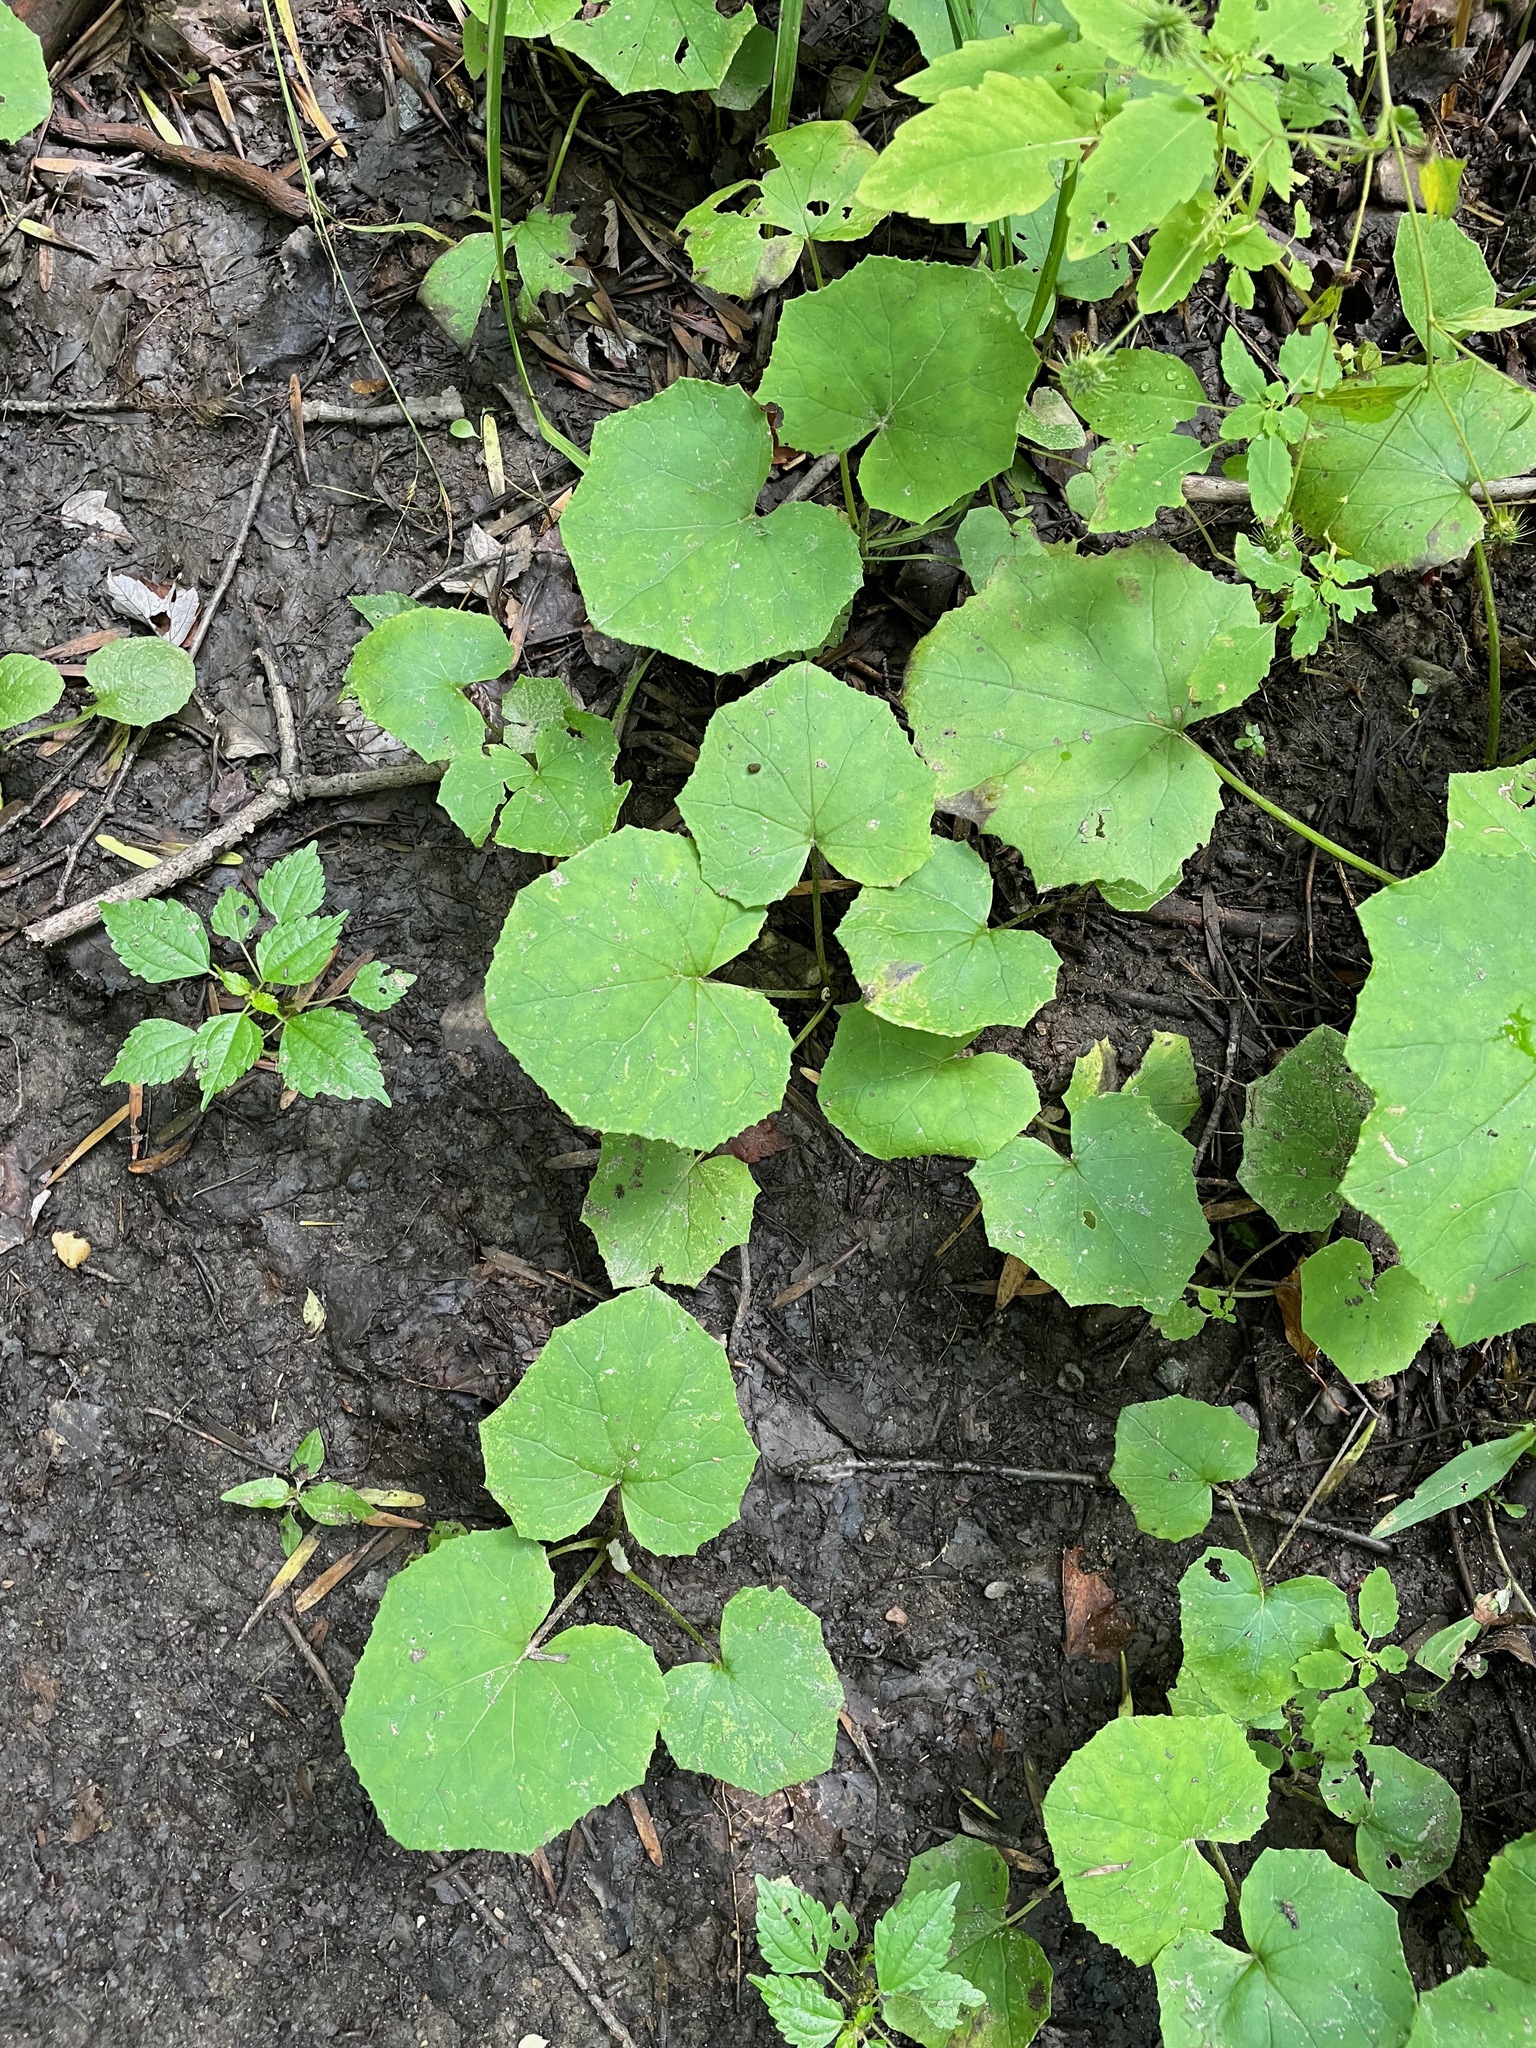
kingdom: Plantae
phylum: Tracheophyta
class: Magnoliopsida
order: Asterales
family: Asteraceae
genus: Tussilago
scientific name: Tussilago farfara
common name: Coltsfoot
